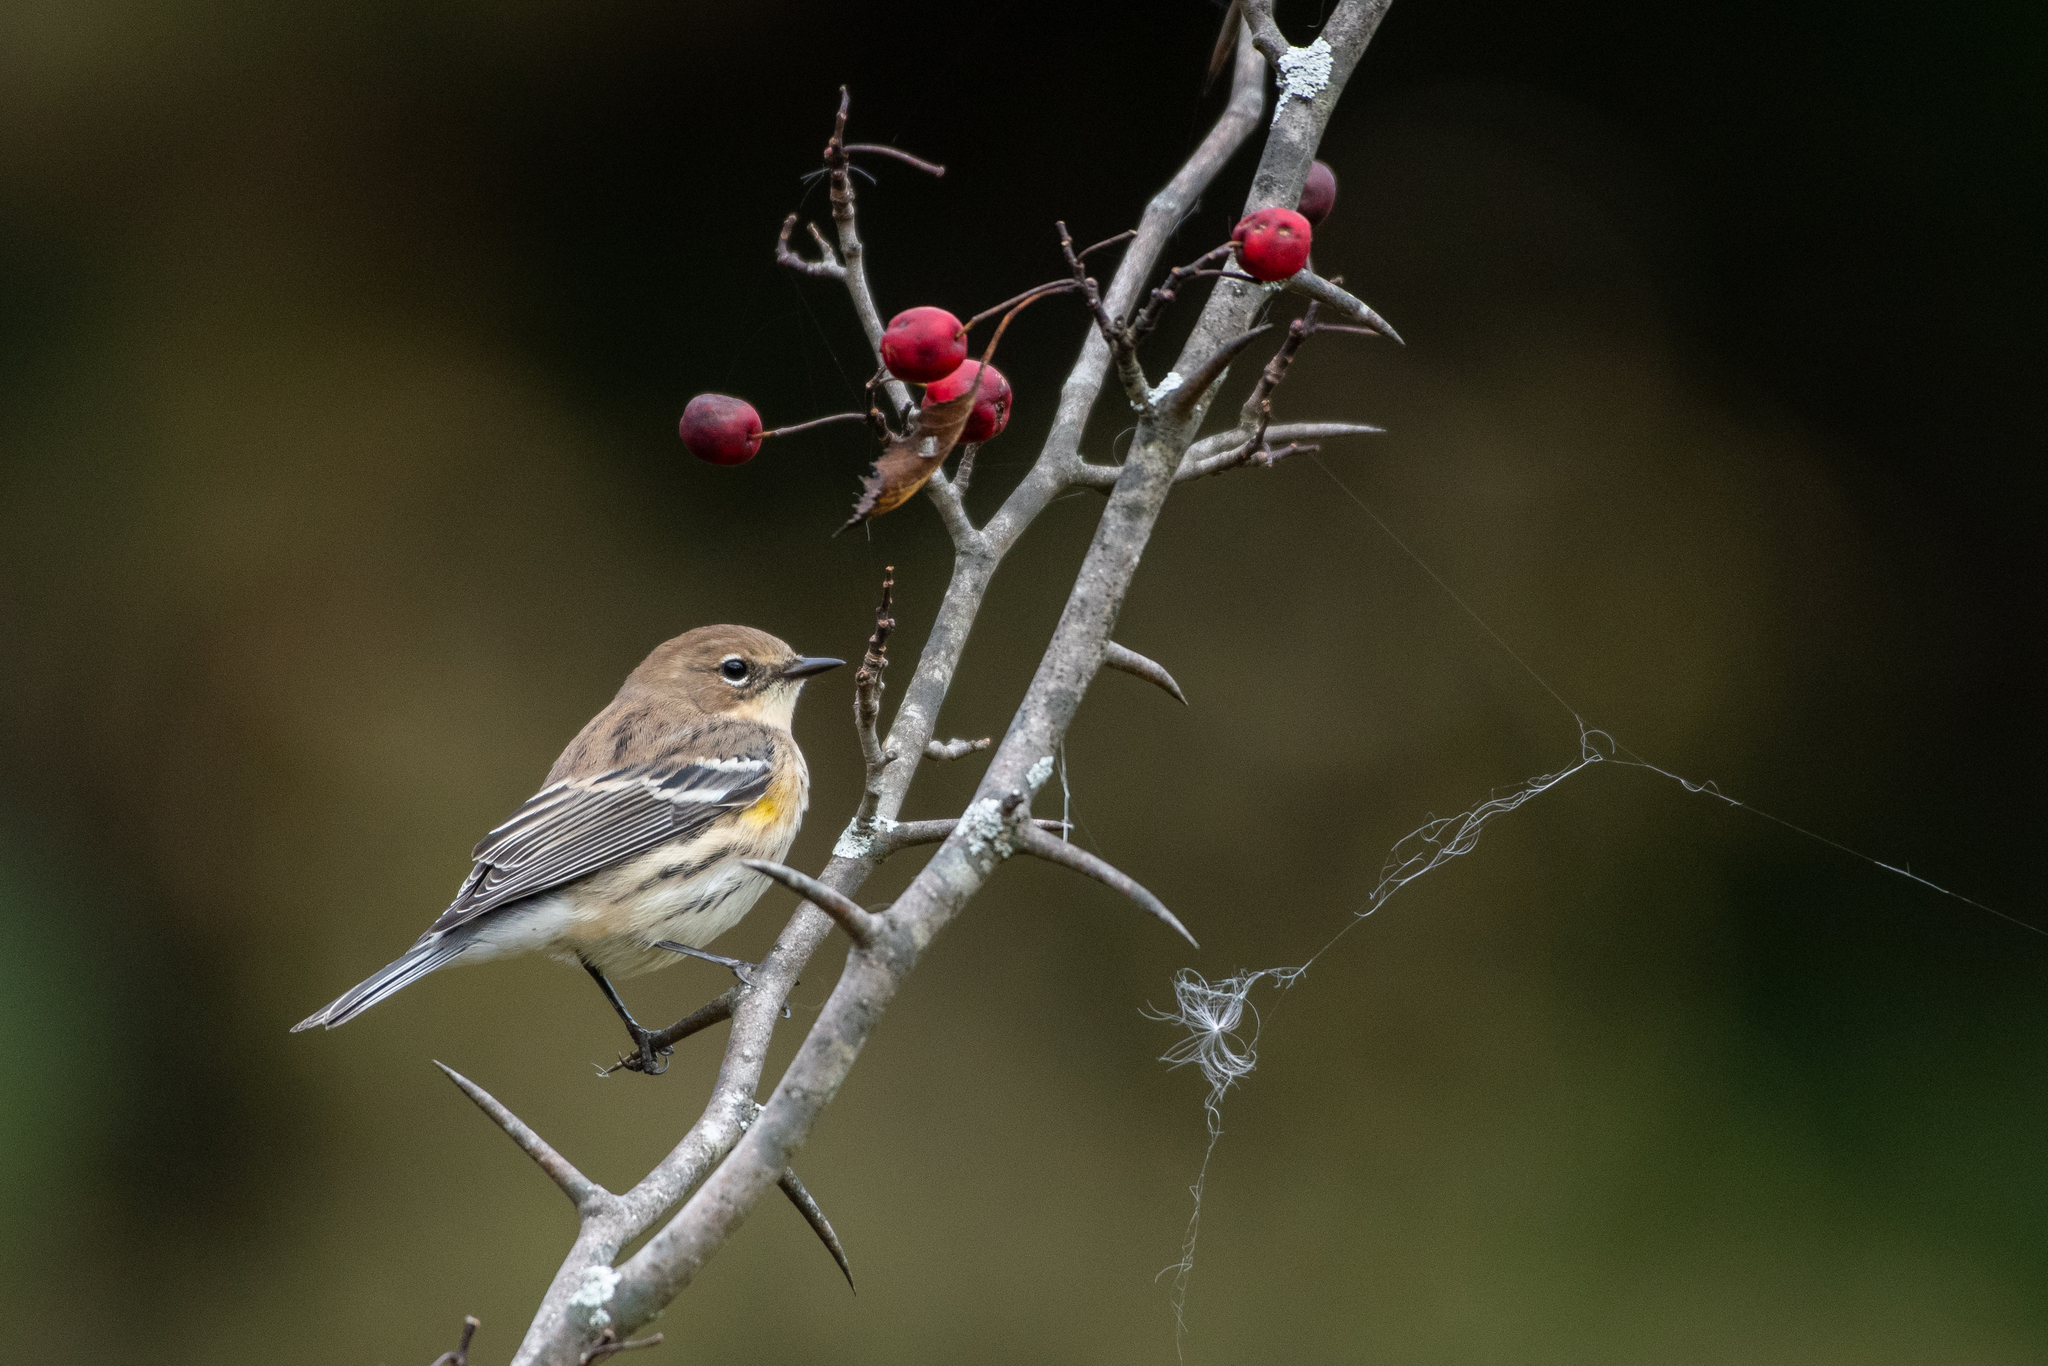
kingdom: Animalia
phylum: Chordata
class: Aves
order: Passeriformes
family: Parulidae
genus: Setophaga
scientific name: Setophaga coronata
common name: Myrtle warbler
